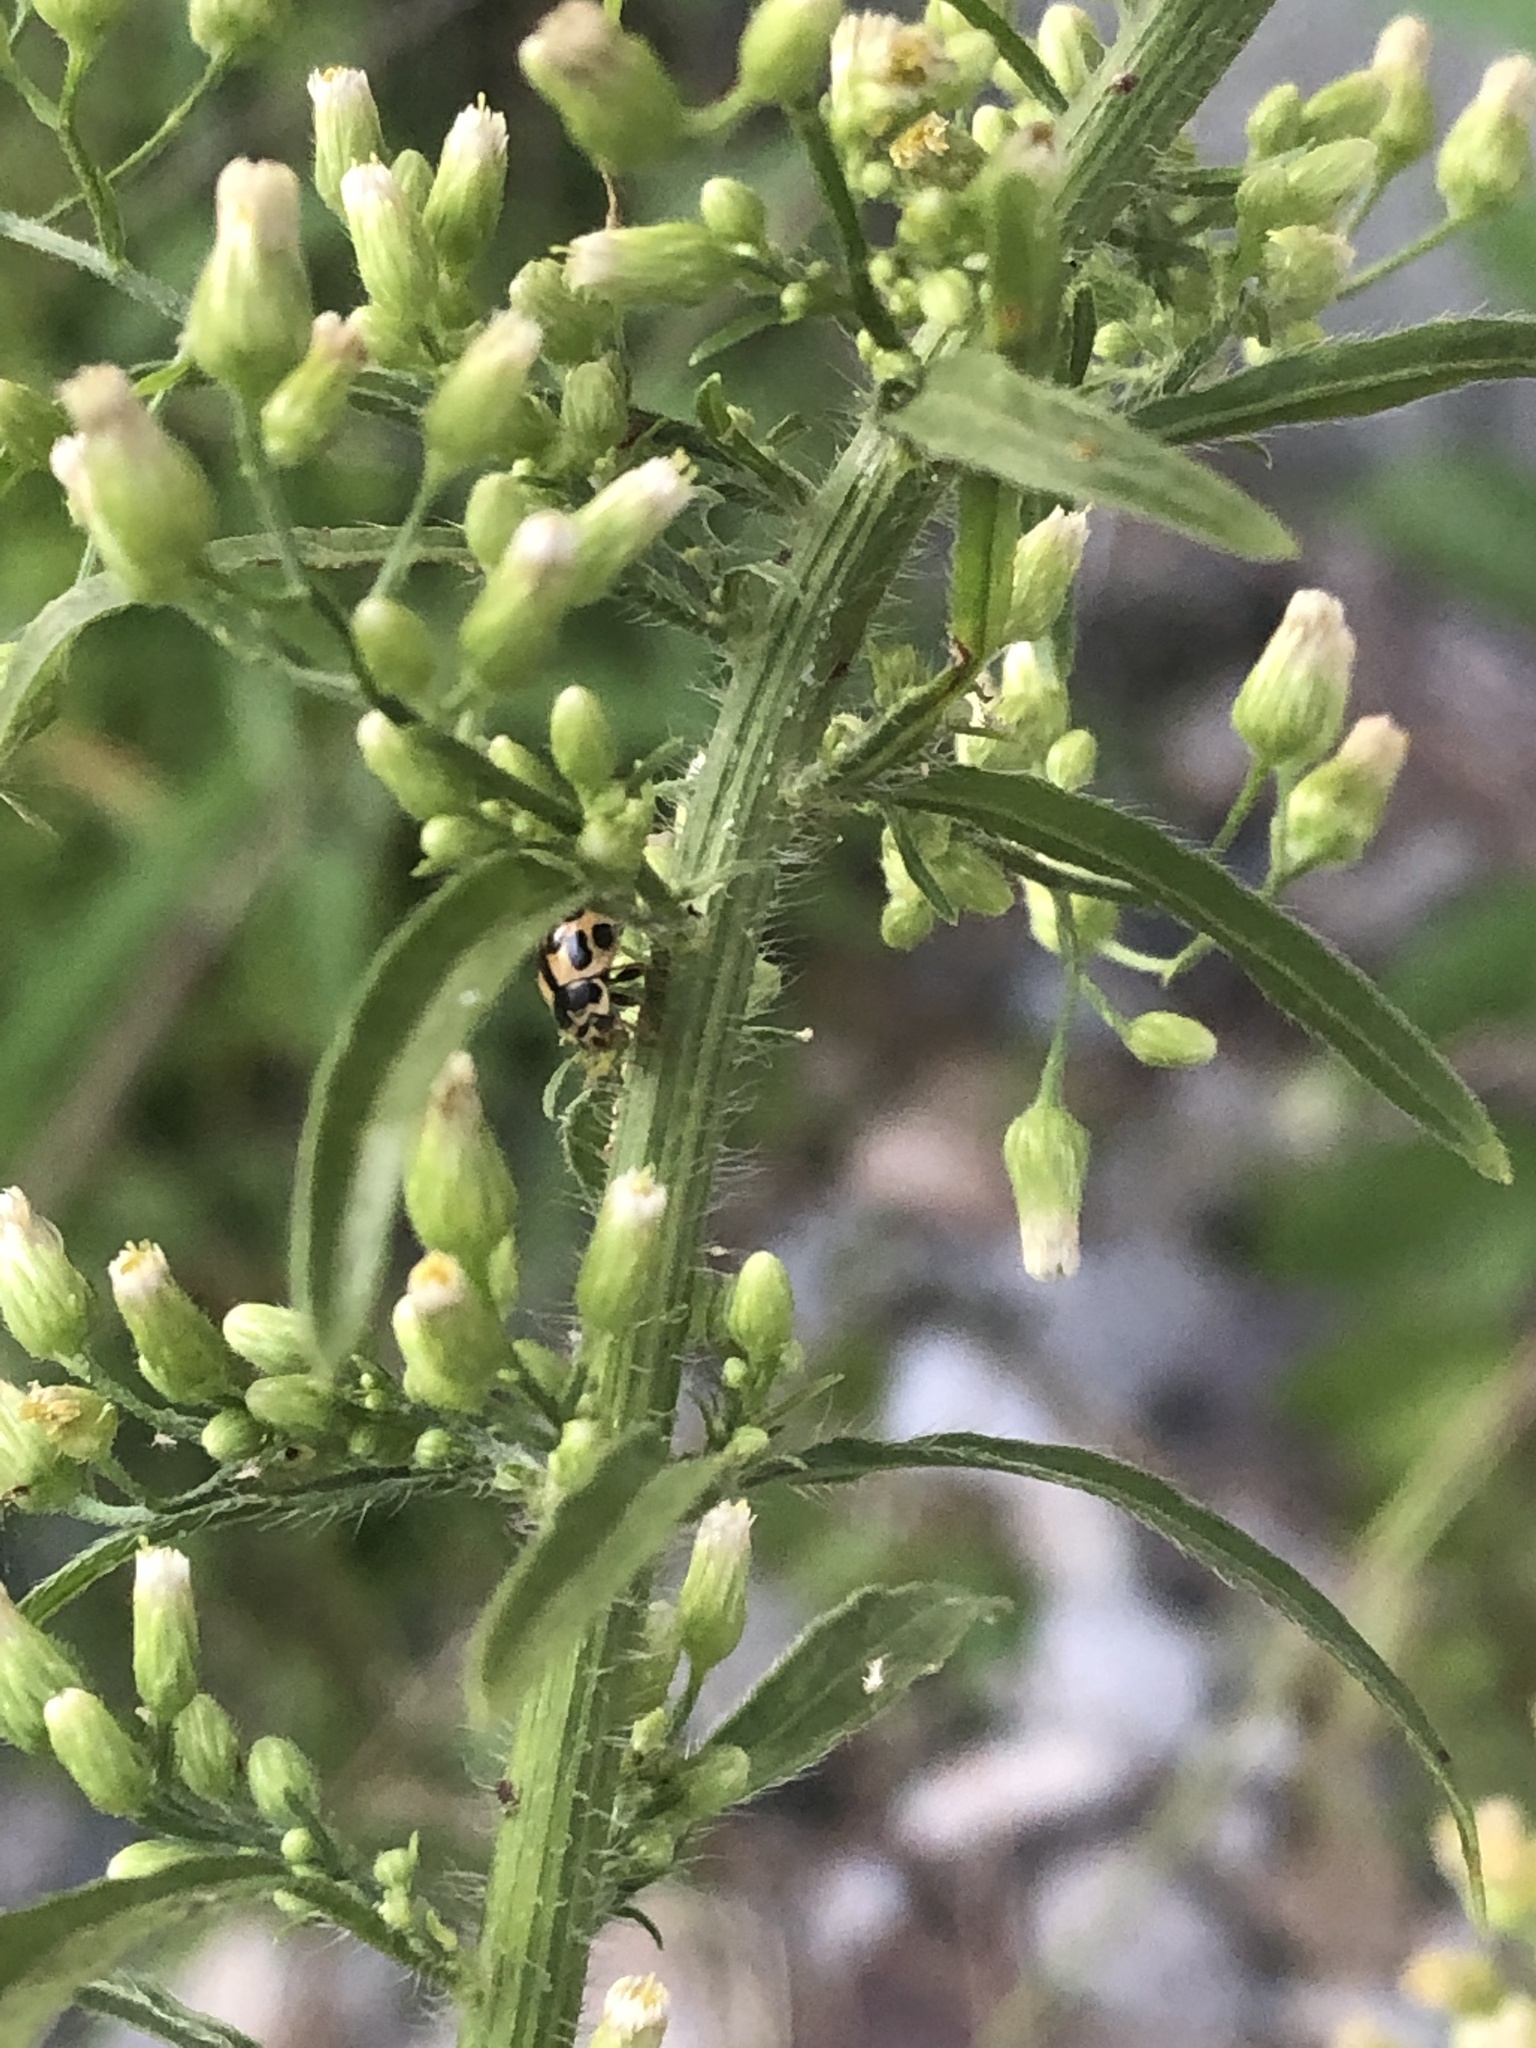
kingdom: Animalia
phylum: Arthropoda
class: Insecta
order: Coleoptera
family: Coccinellidae
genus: Propylaea
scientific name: Propylaea quatuordecimpunctata
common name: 14-spotted ladybird beetle
